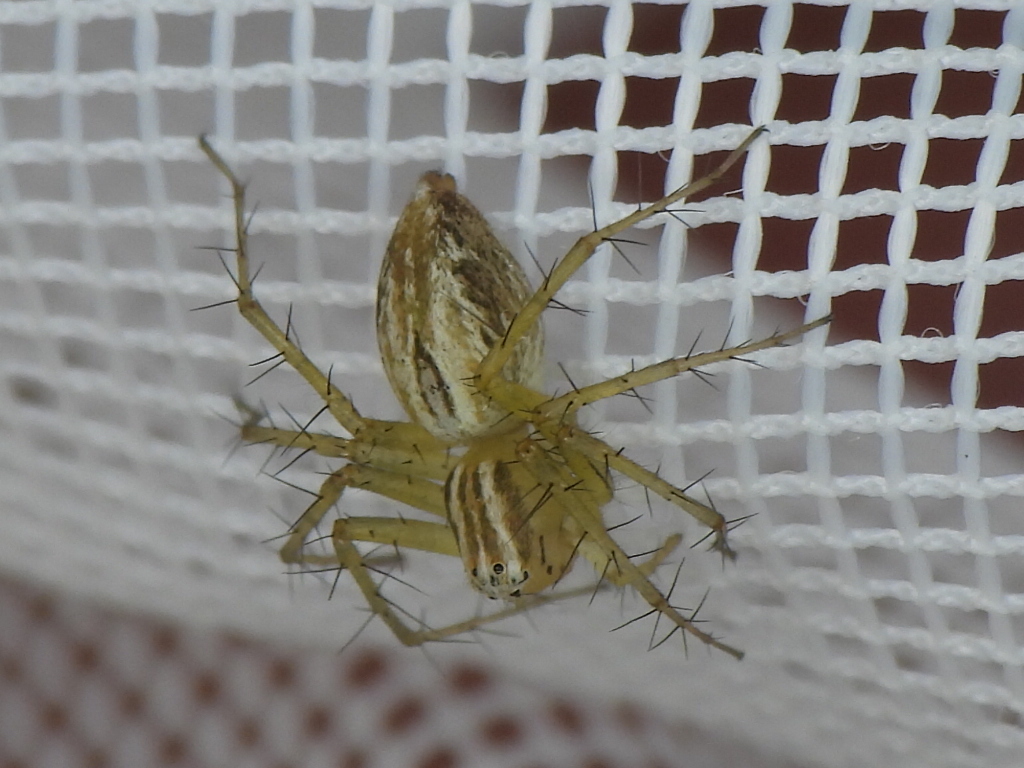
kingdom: Animalia
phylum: Arthropoda
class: Arachnida
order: Araneae
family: Oxyopidae
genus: Oxyopes
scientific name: Oxyopes salticus
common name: Lynx spiders
